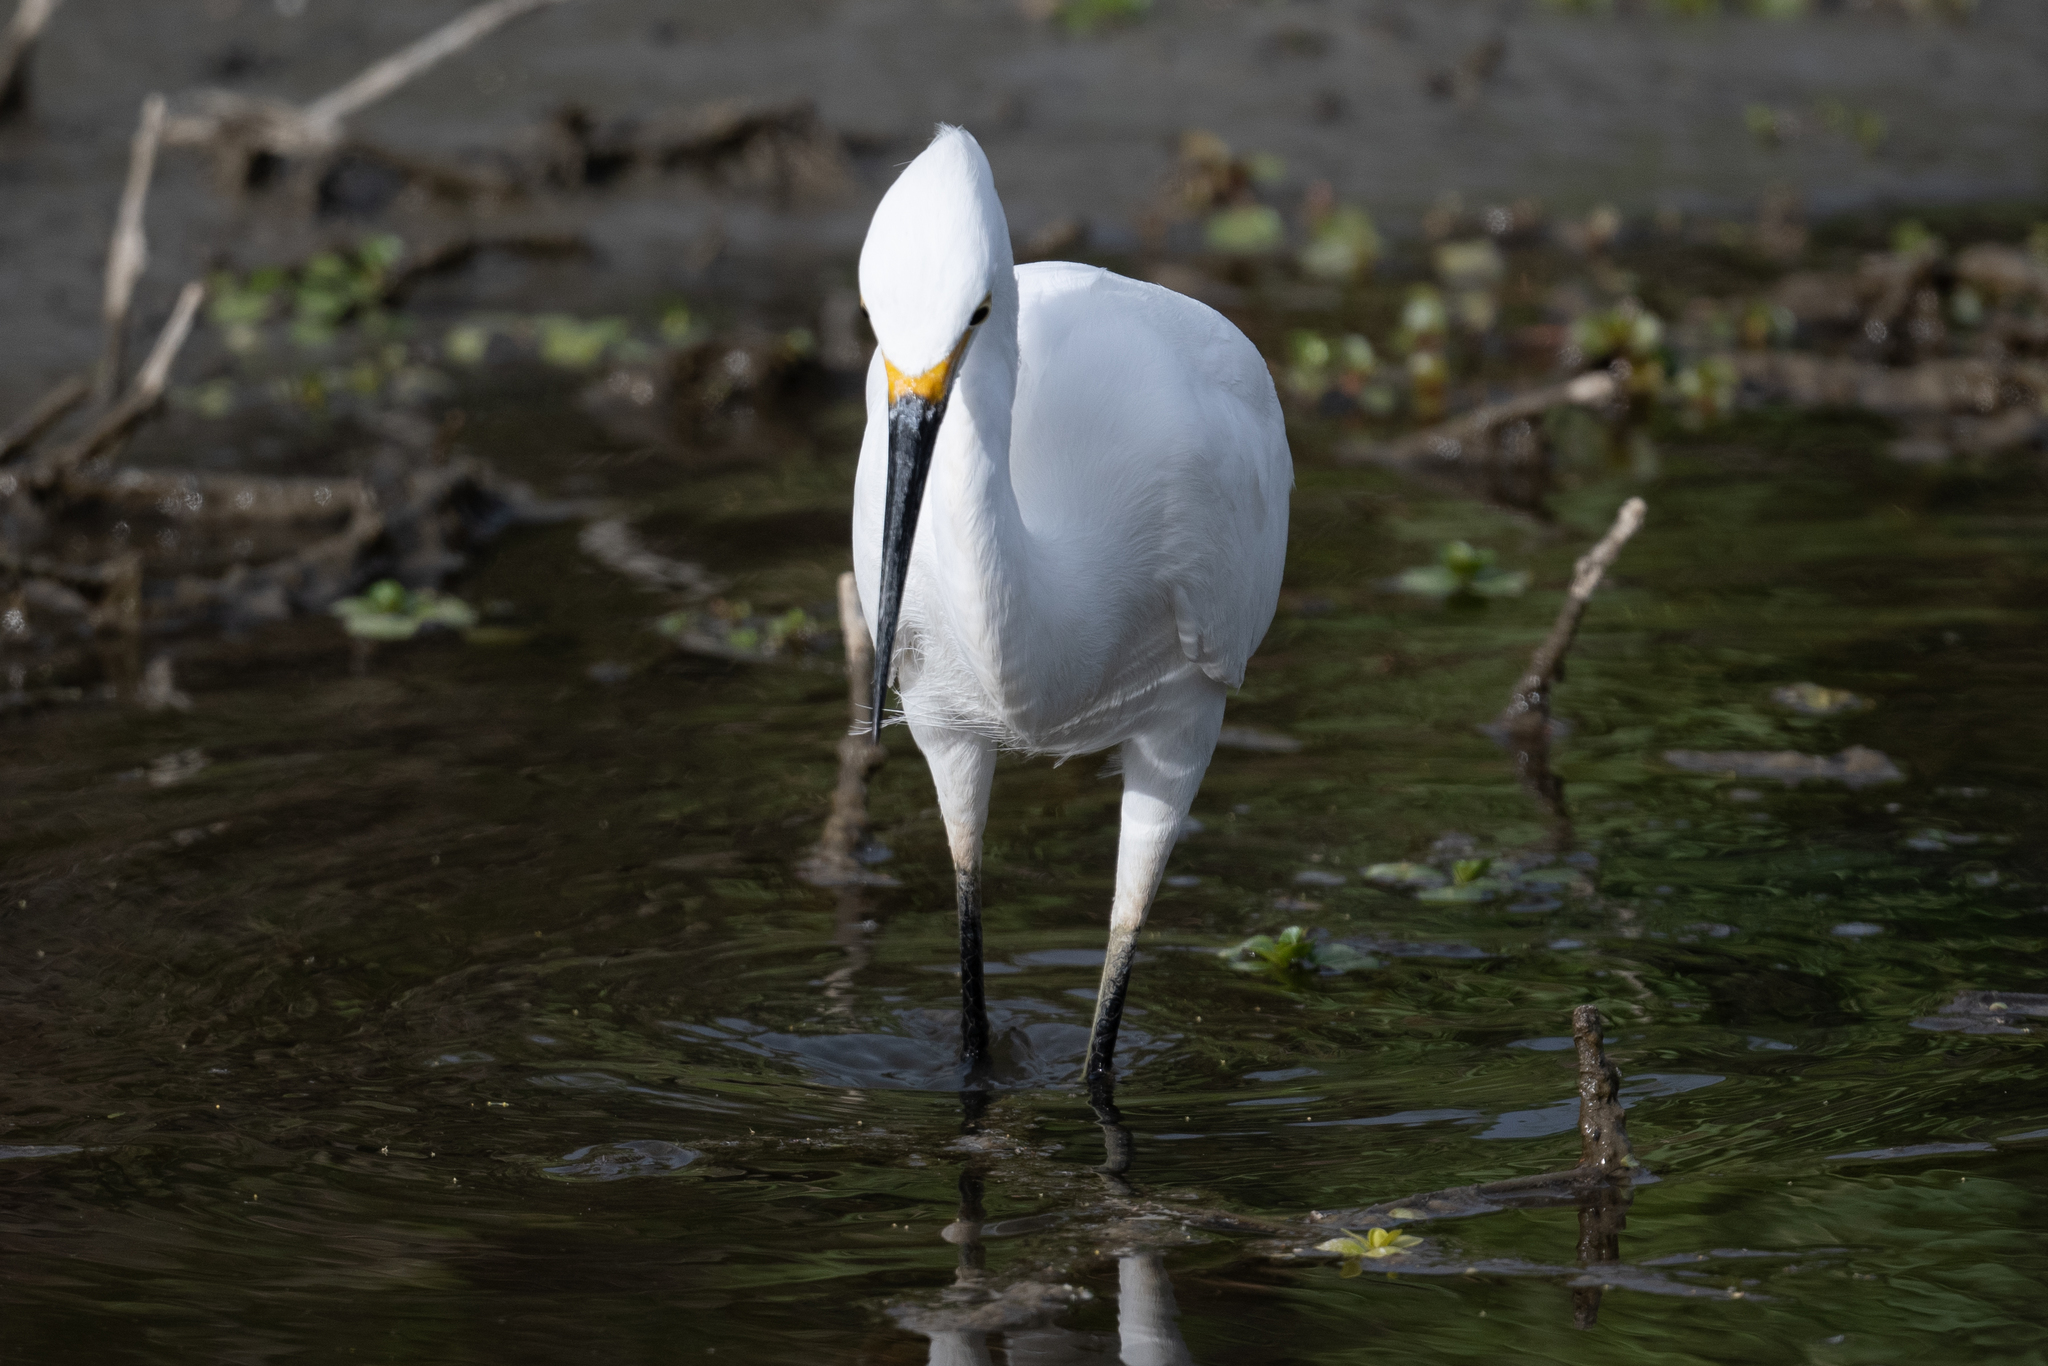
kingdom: Animalia
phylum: Chordata
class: Aves
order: Pelecaniformes
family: Ardeidae
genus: Egretta
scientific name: Egretta thula
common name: Snowy egret
